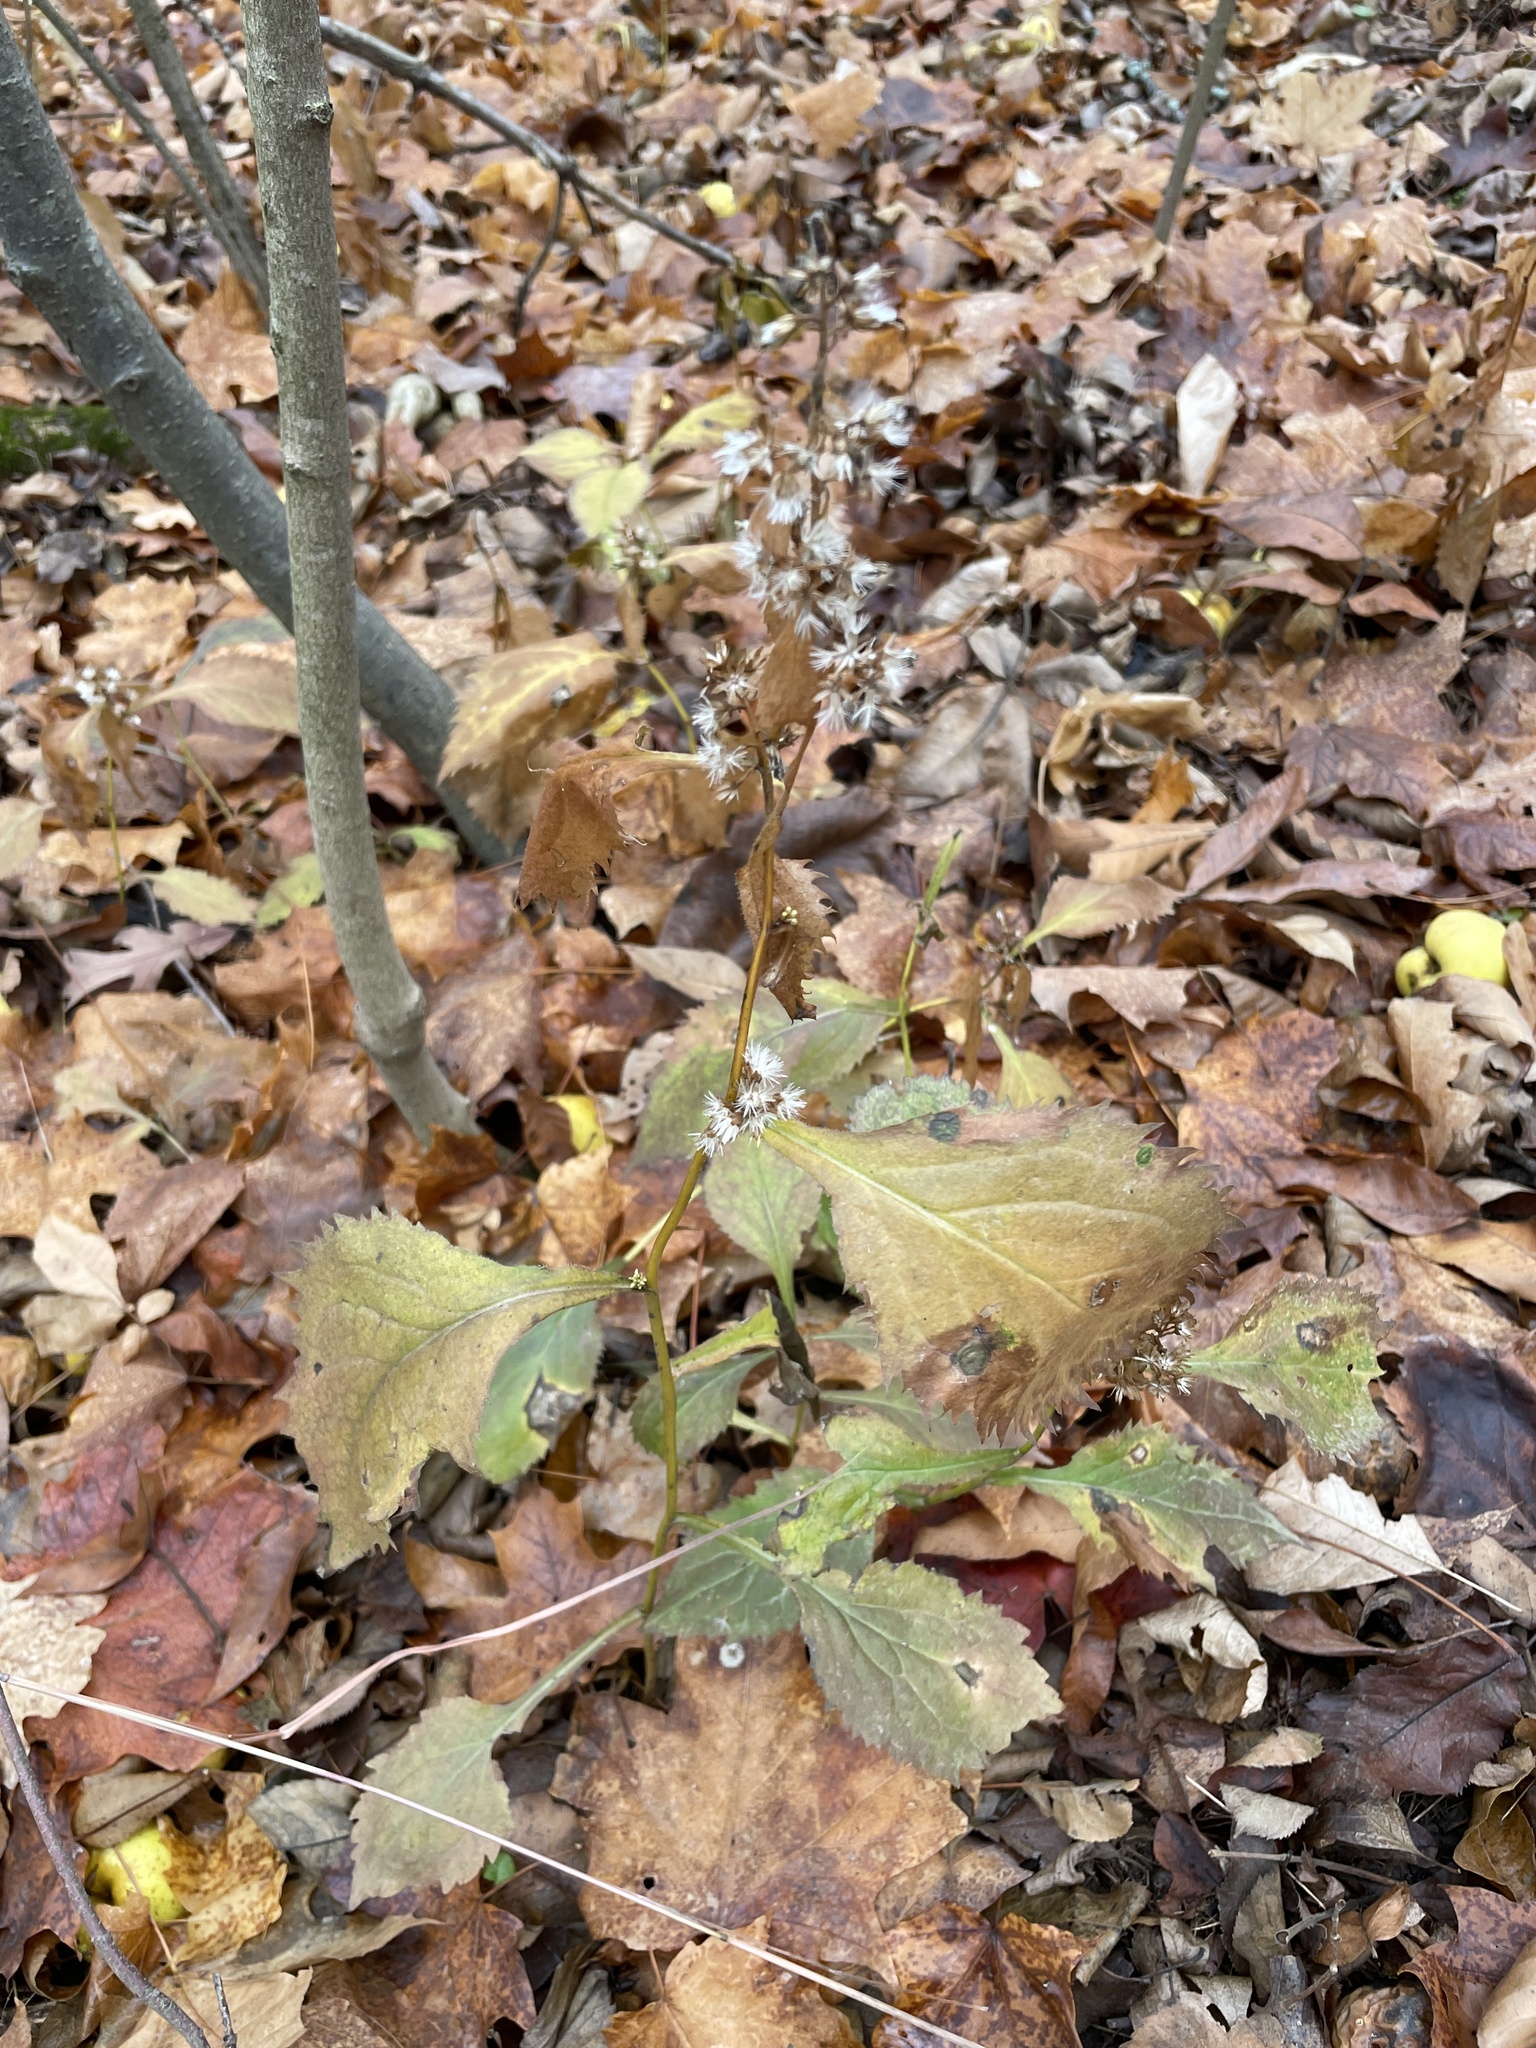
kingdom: Plantae
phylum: Tracheophyta
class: Magnoliopsida
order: Asterales
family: Asteraceae
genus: Solidago
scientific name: Solidago flexicaulis
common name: Zig-zag goldenrod
